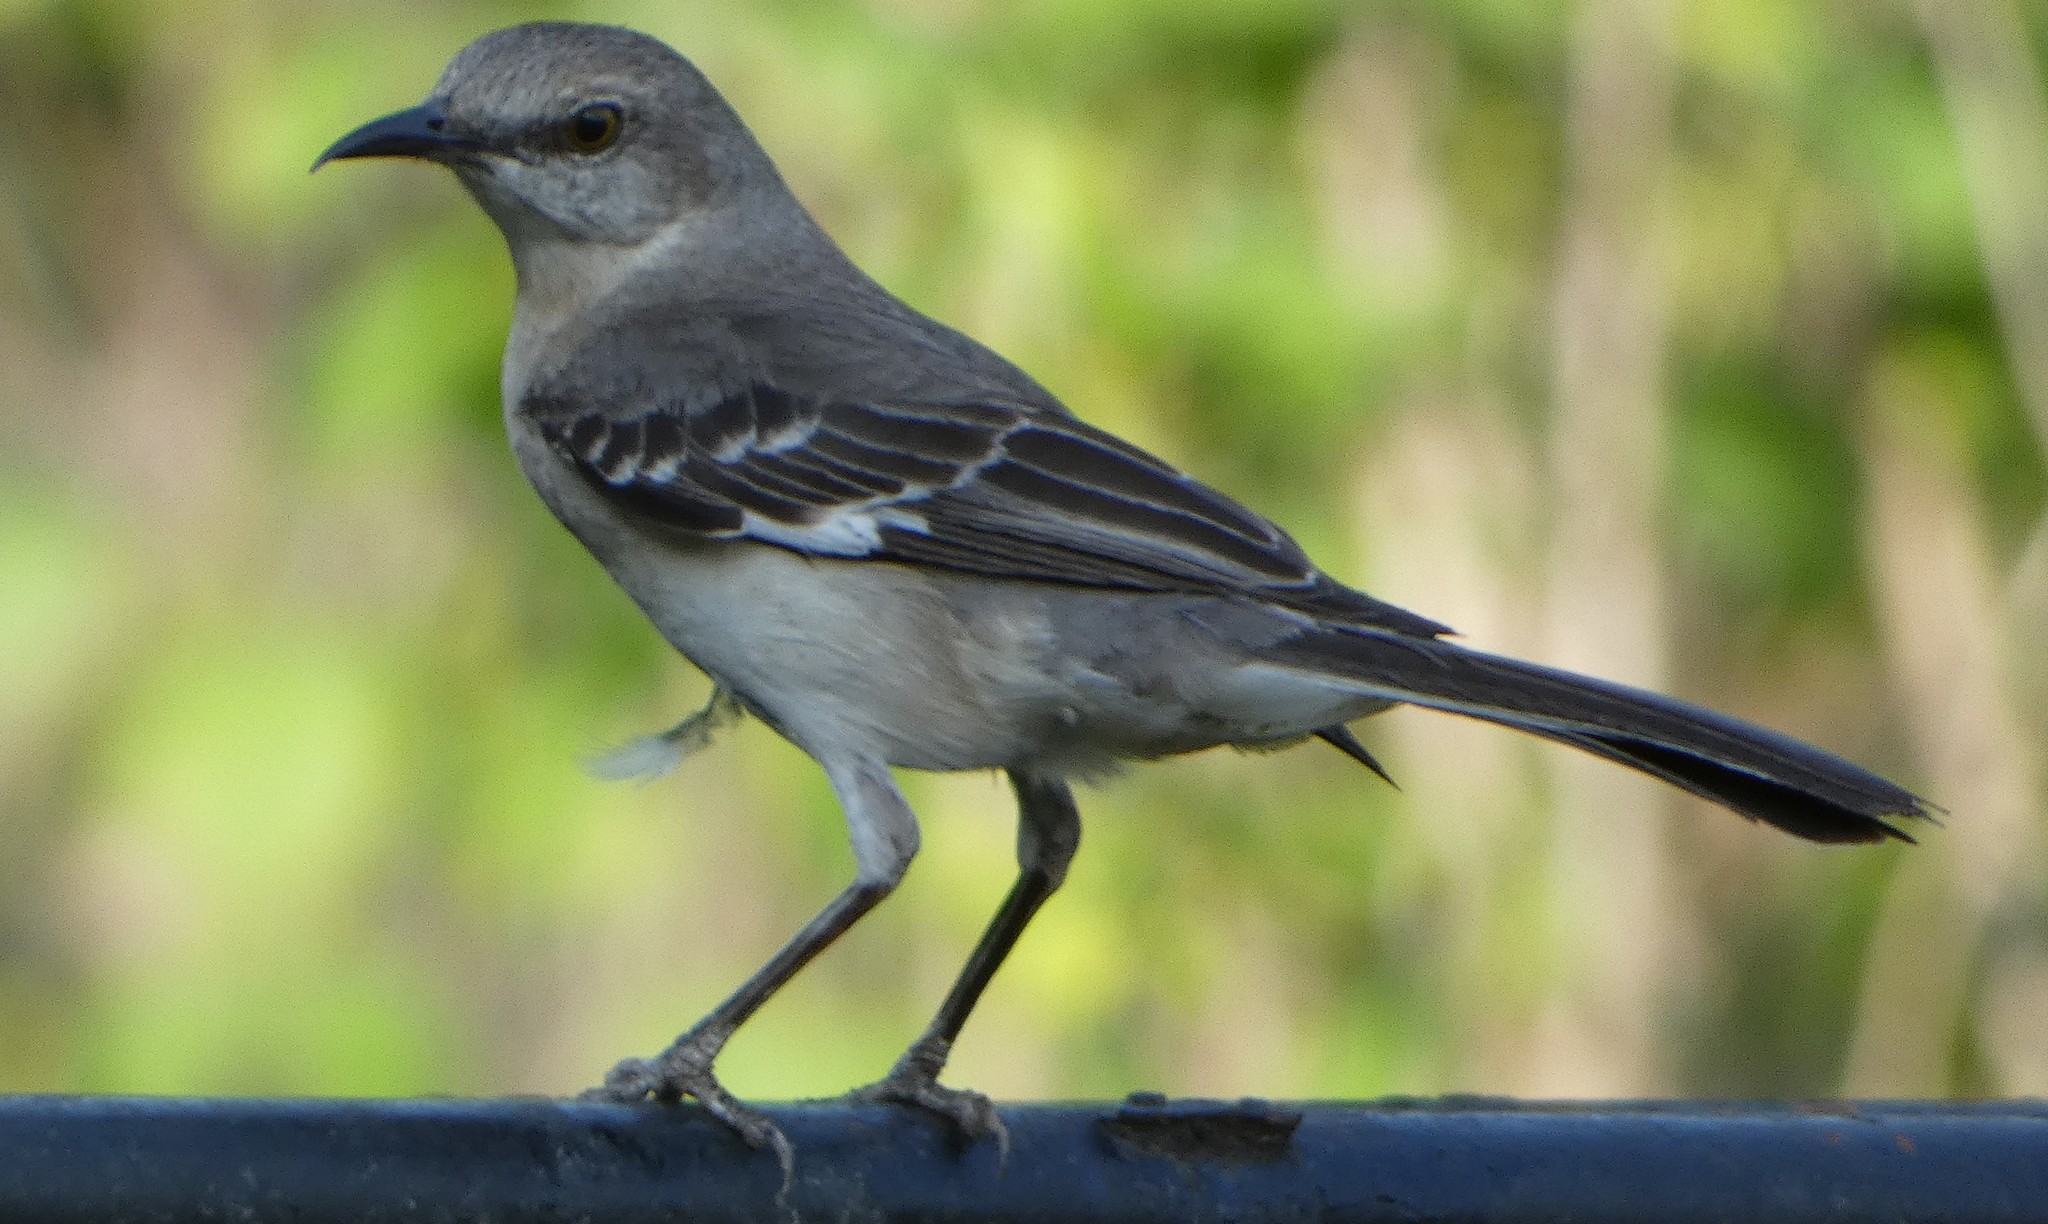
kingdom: Animalia
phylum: Chordata
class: Aves
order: Passeriformes
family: Mimidae
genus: Mimus
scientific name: Mimus polyglottos
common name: Northern mockingbird
